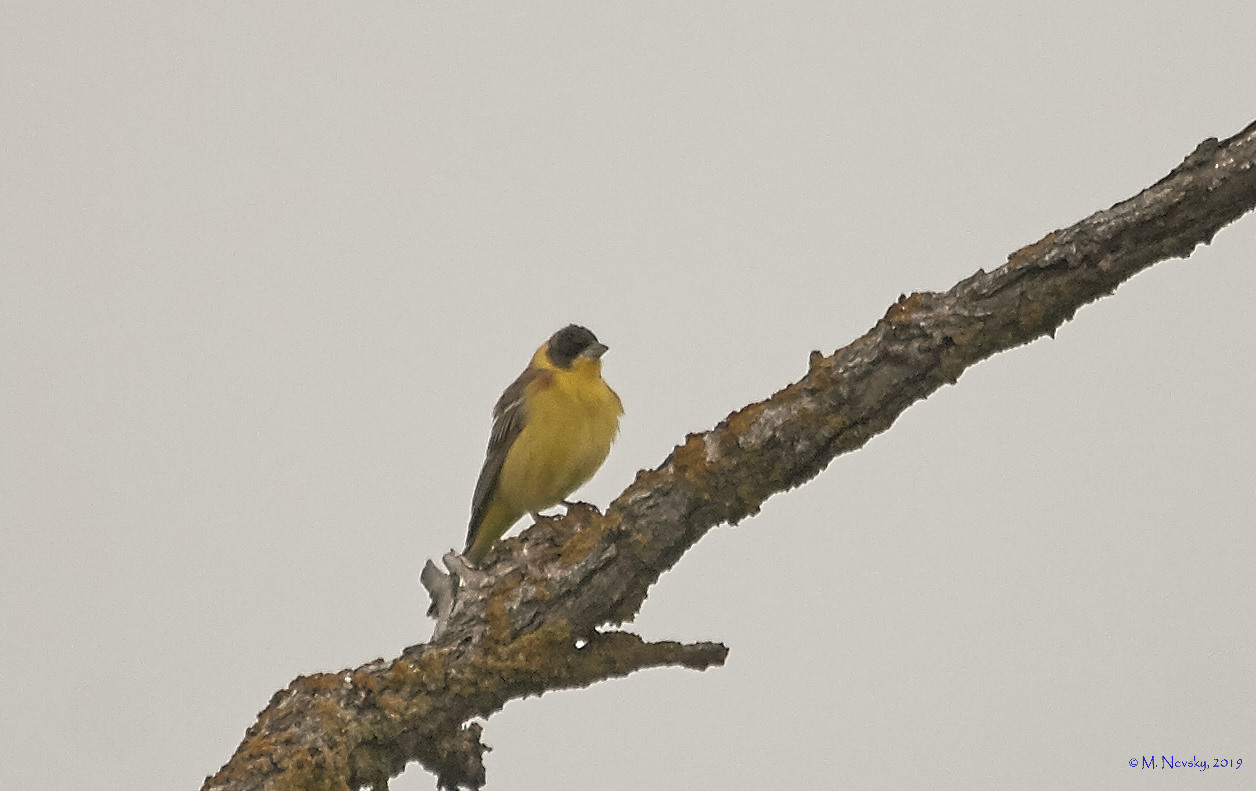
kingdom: Animalia
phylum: Chordata
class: Aves
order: Passeriformes
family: Emberizidae
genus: Emberiza
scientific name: Emberiza melanocephala
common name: Black-headed bunting
